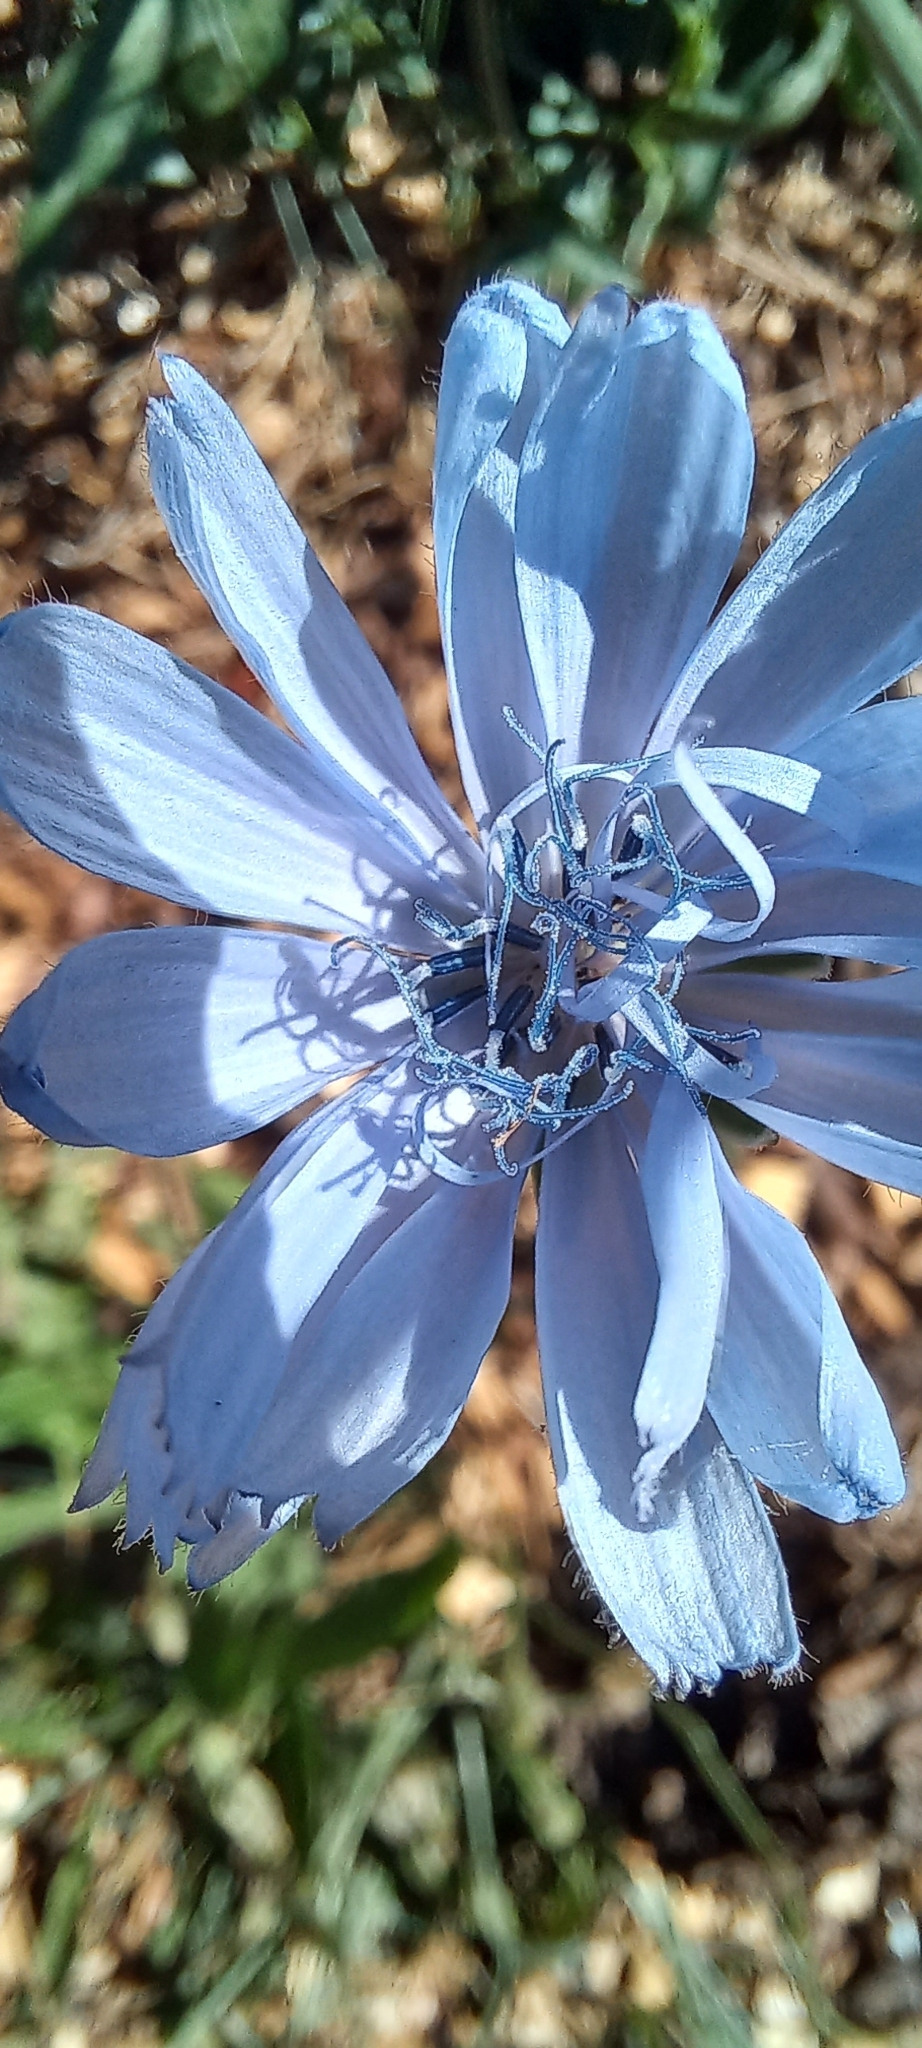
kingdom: Plantae
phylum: Tracheophyta
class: Magnoliopsida
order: Asterales
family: Asteraceae
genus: Cichorium
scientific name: Cichorium intybus
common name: Chicory
